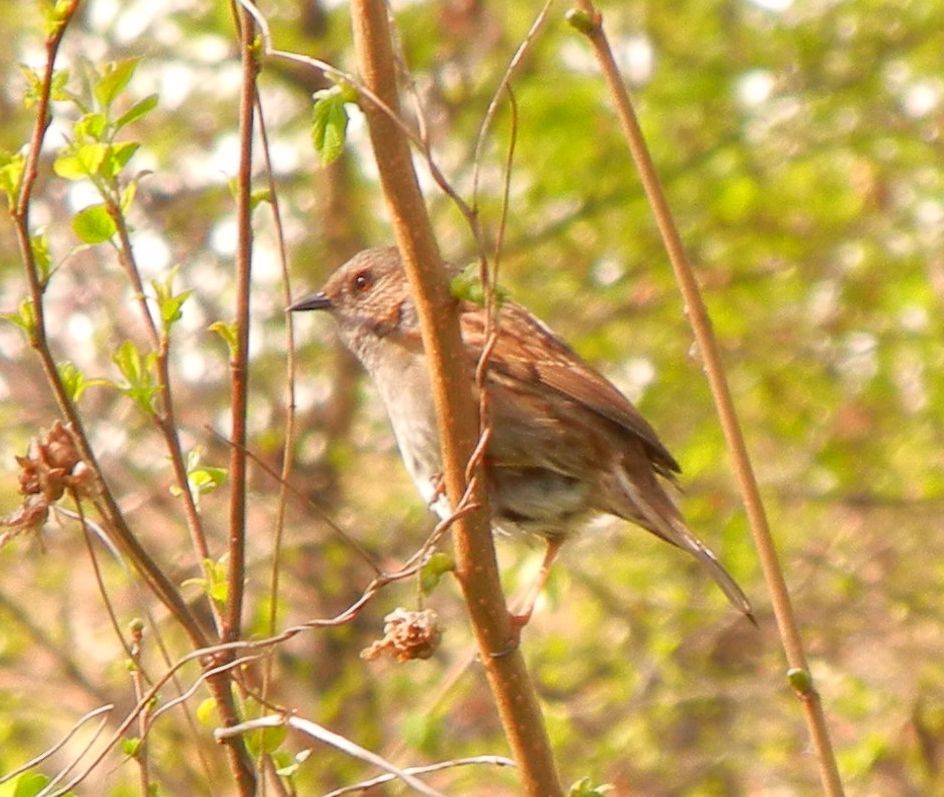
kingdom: Animalia
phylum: Chordata
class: Aves
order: Passeriformes
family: Prunellidae
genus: Prunella
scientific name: Prunella modularis
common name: Dunnock
